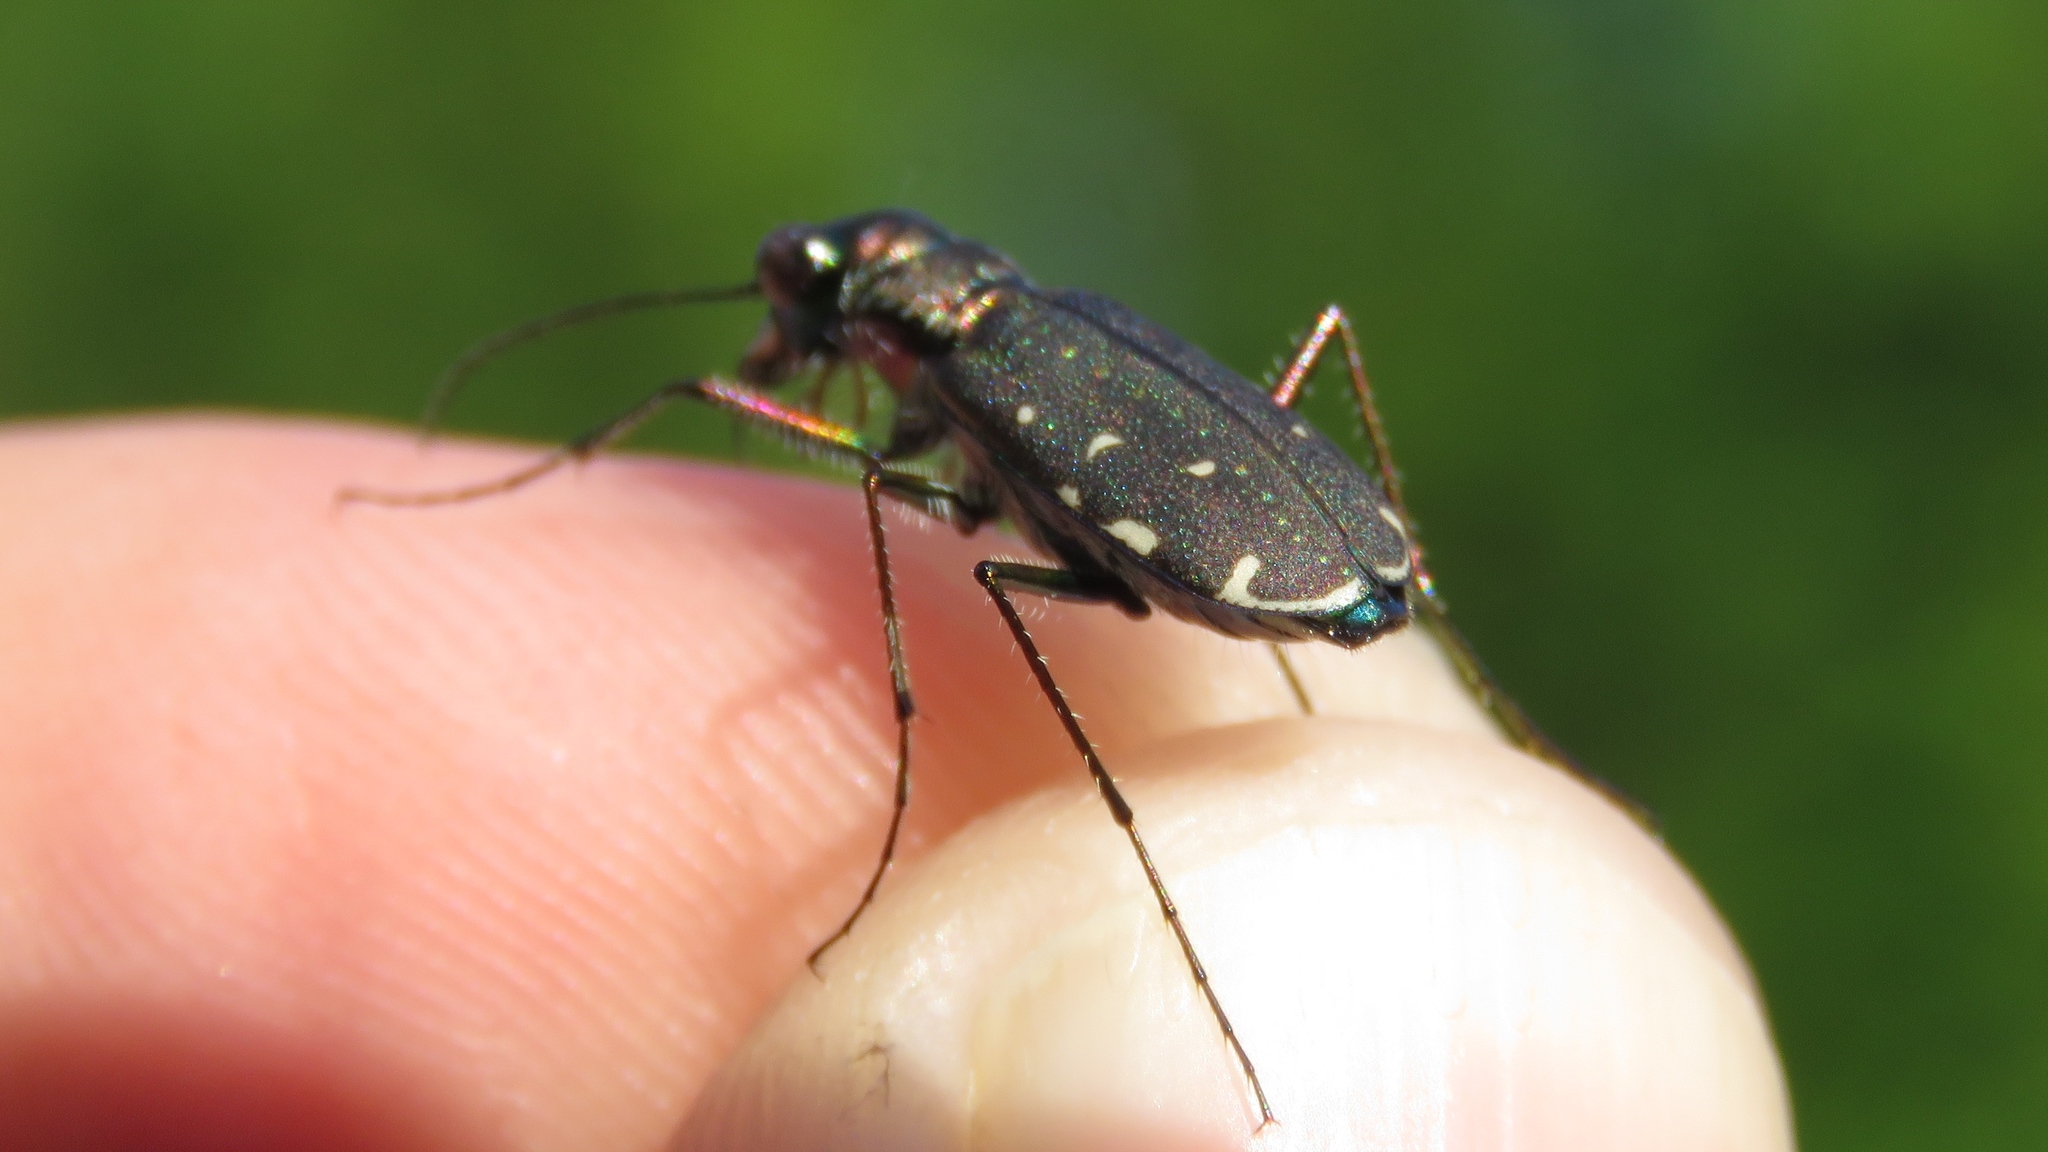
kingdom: Animalia
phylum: Arthropoda
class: Insecta
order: Coleoptera
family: Carabidae
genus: Cicindela
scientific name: Cicindela punctulata
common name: Punctured tiger beetle
